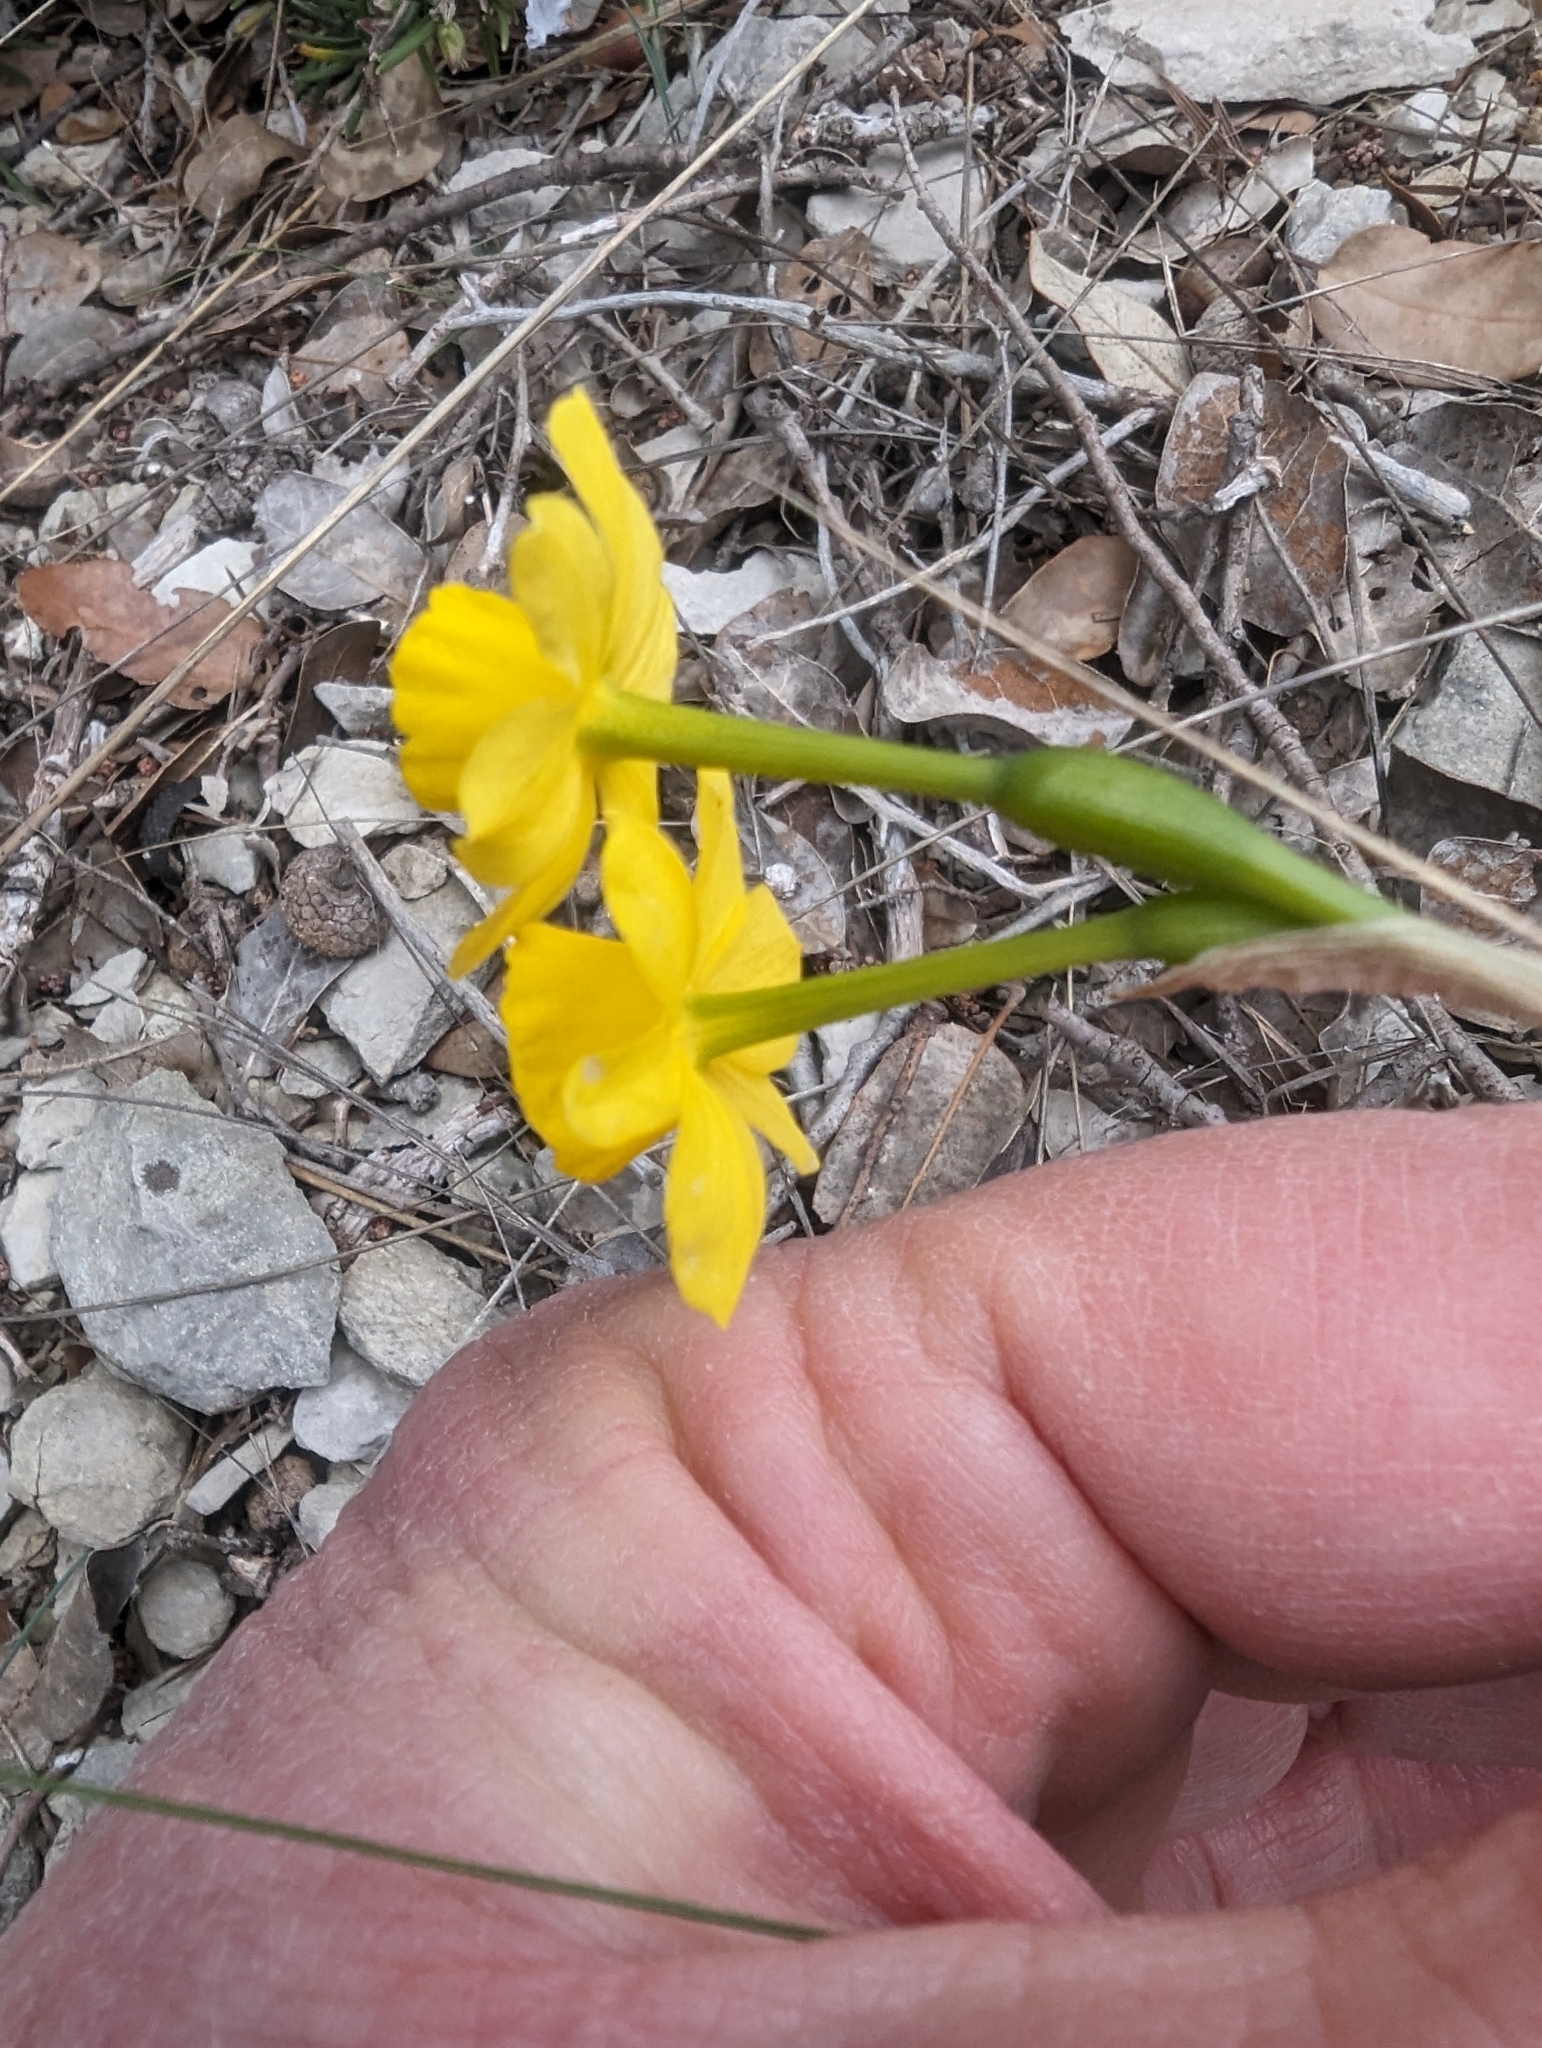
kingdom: Plantae
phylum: Tracheophyta
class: Liliopsida
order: Asparagales
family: Amaryllidaceae
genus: Narcissus
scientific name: Narcissus assoanus
